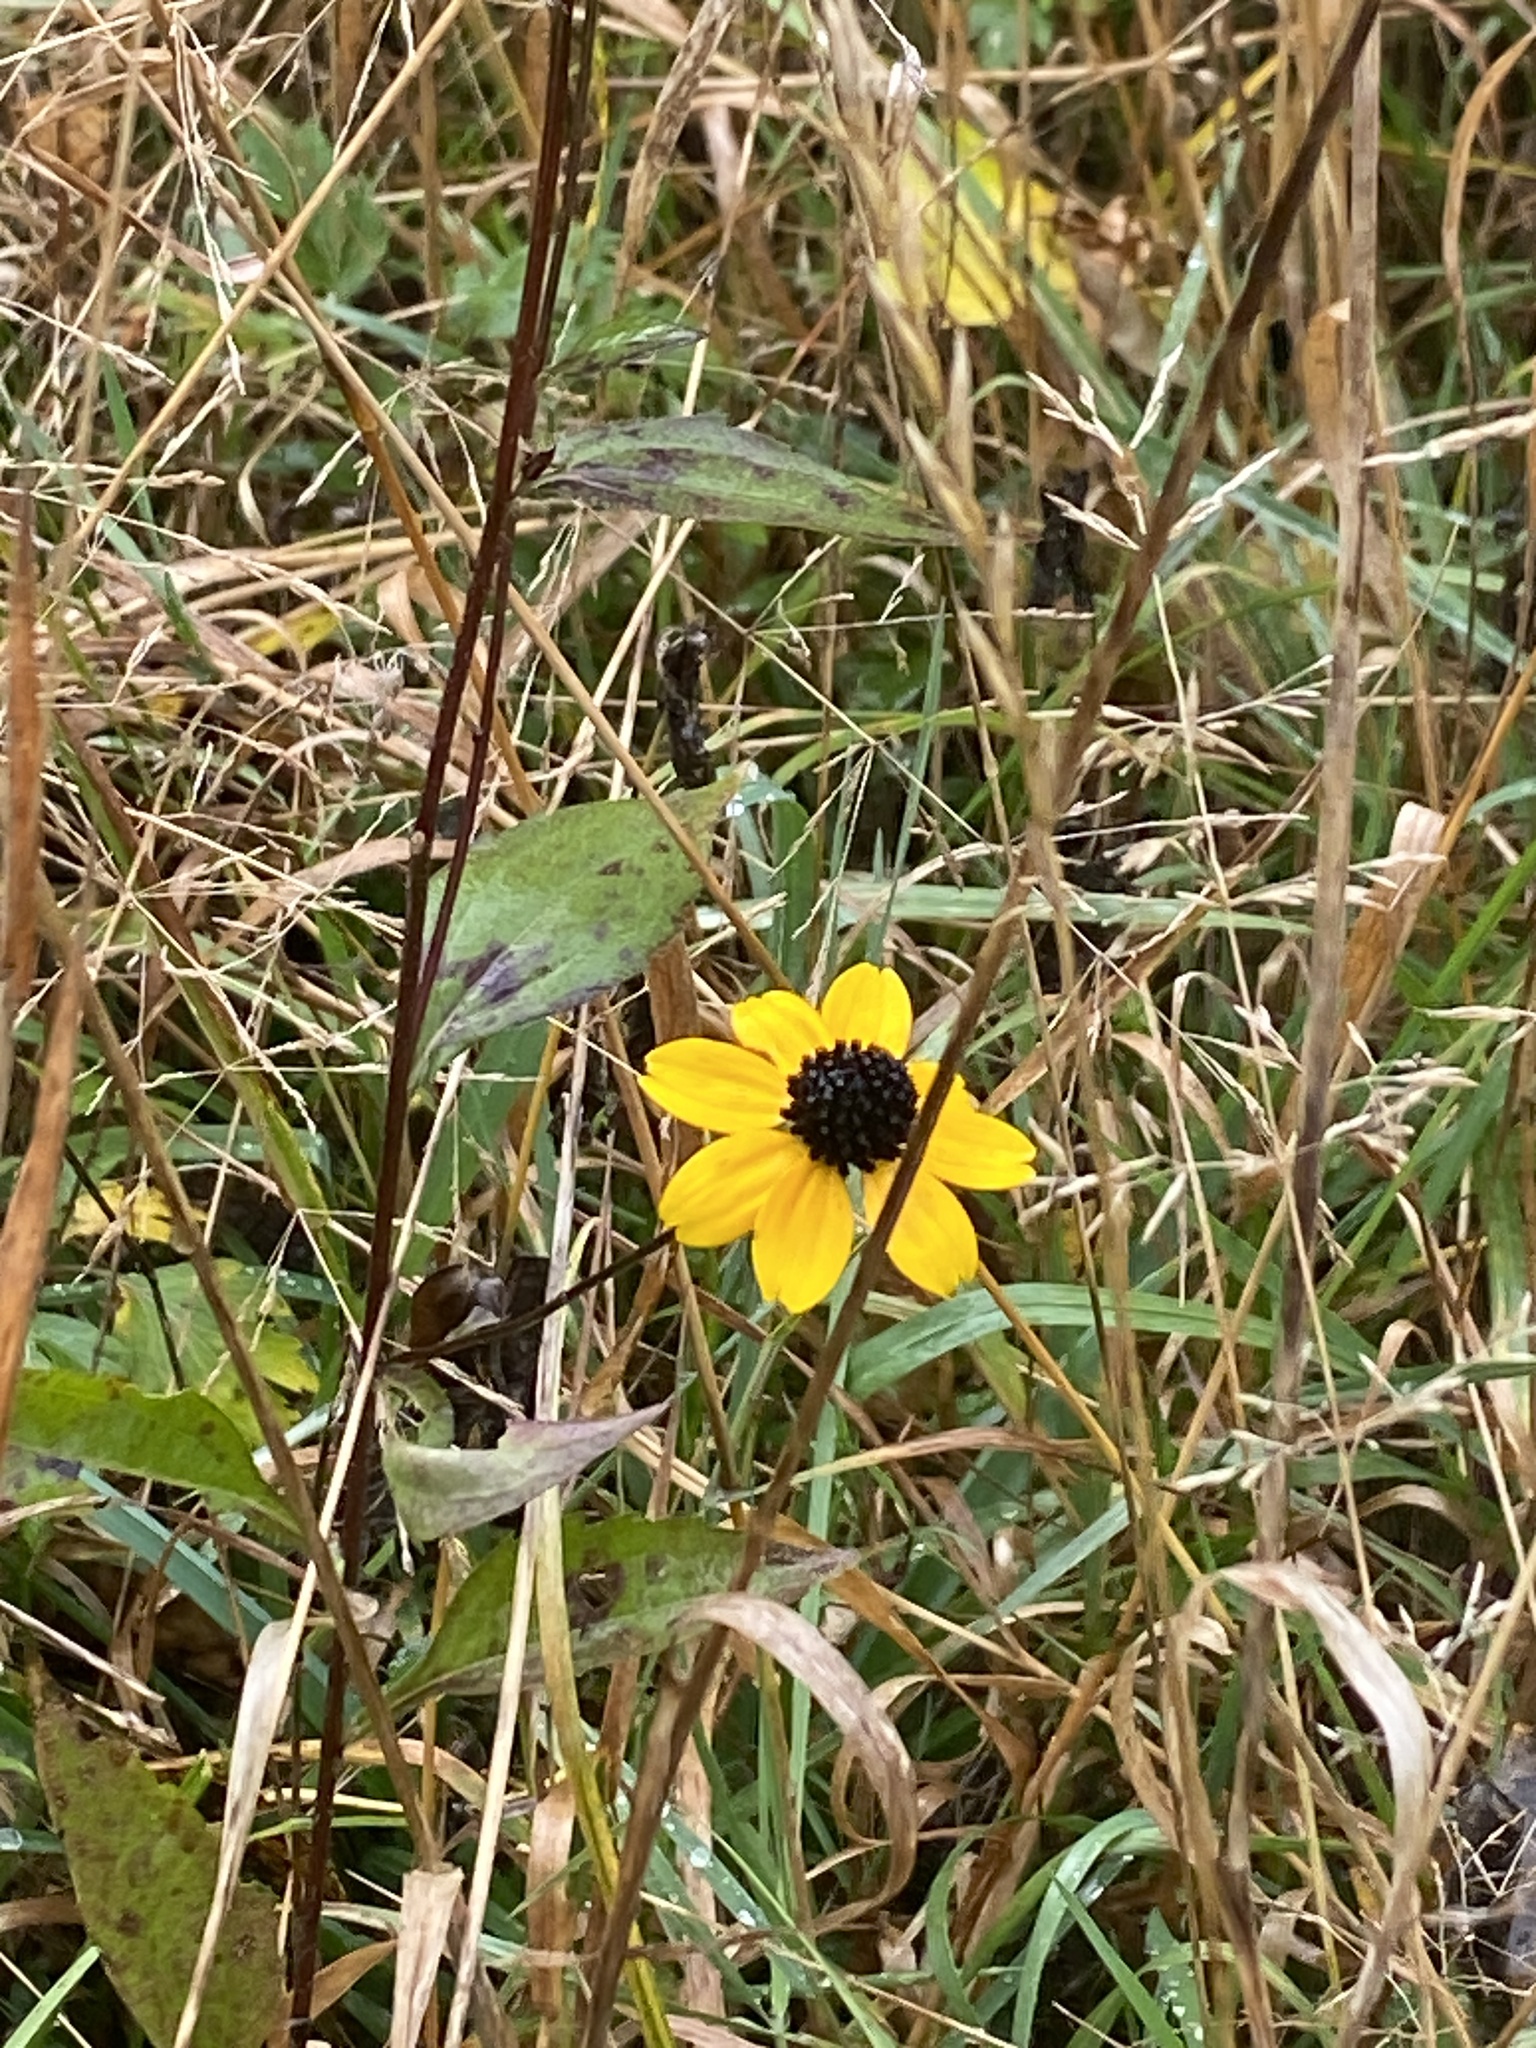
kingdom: Plantae
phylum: Tracheophyta
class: Magnoliopsida
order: Asterales
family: Asteraceae
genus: Rudbeckia
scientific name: Rudbeckia triloba
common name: Thin-leaved coneflower
